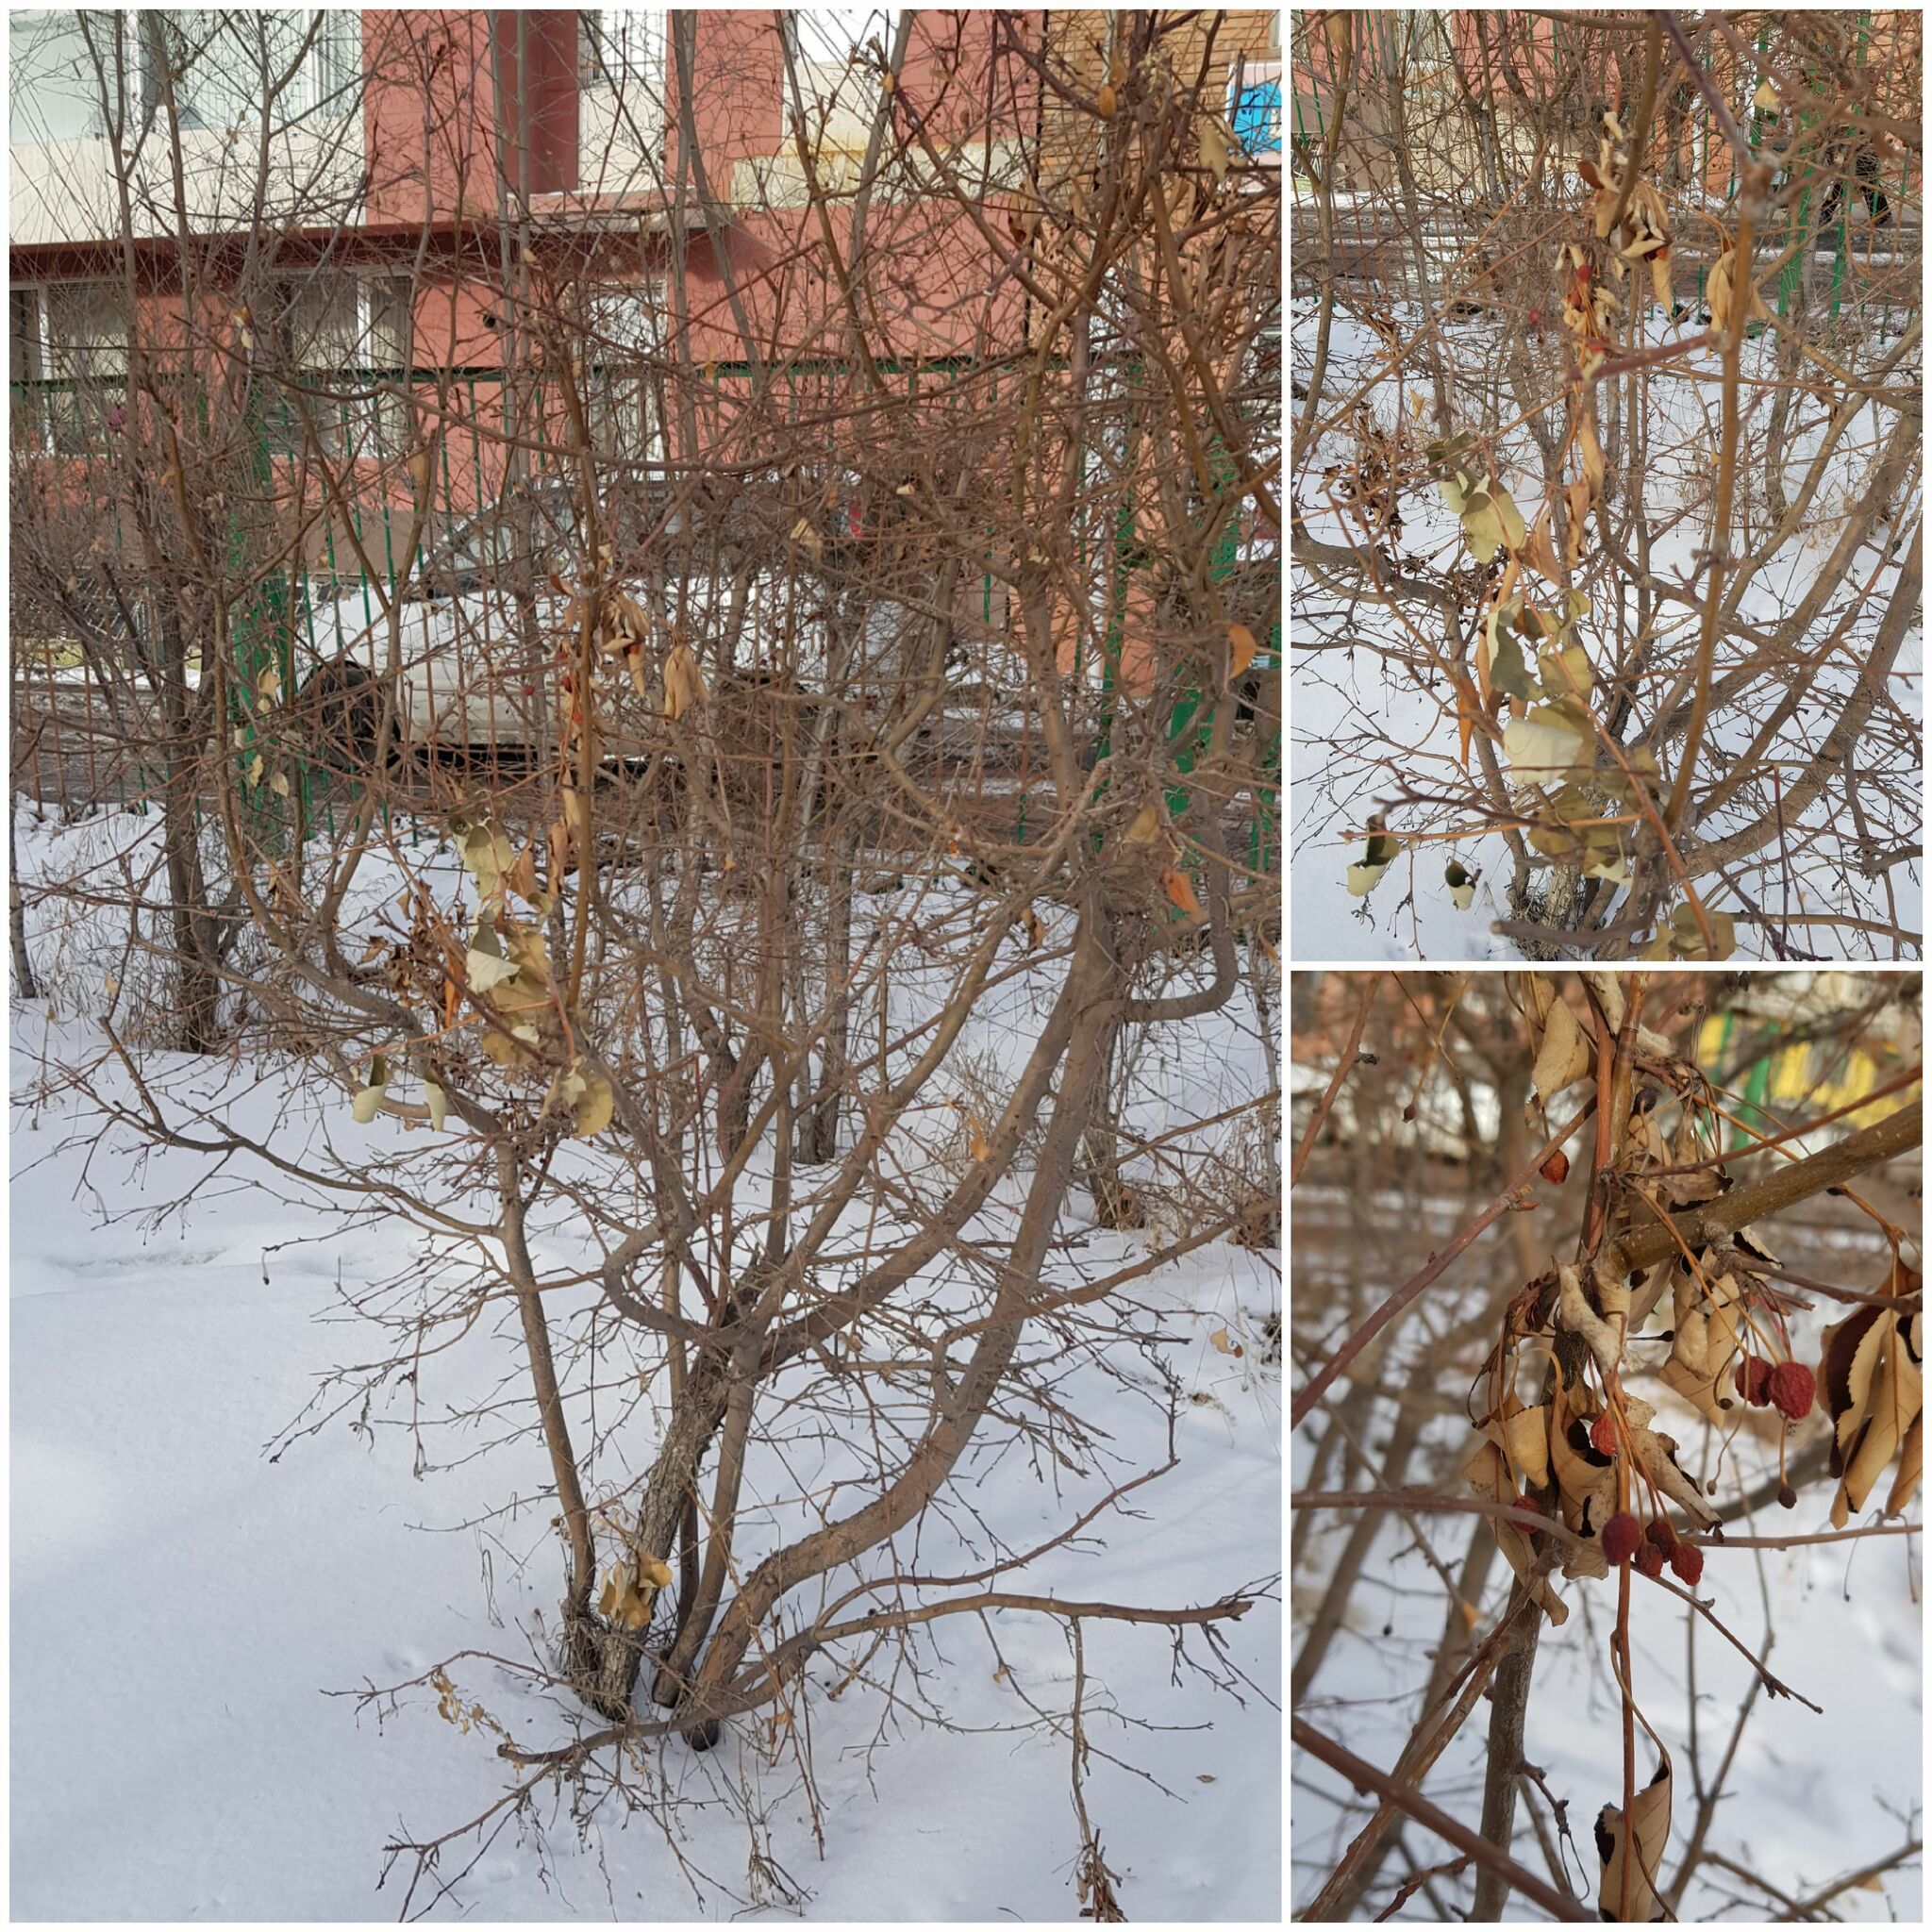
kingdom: Plantae
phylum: Tracheophyta
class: Magnoliopsida
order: Dipsacales
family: Caprifoliaceae
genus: Lonicera
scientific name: Lonicera caerulea
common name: Blue honeysuckle
